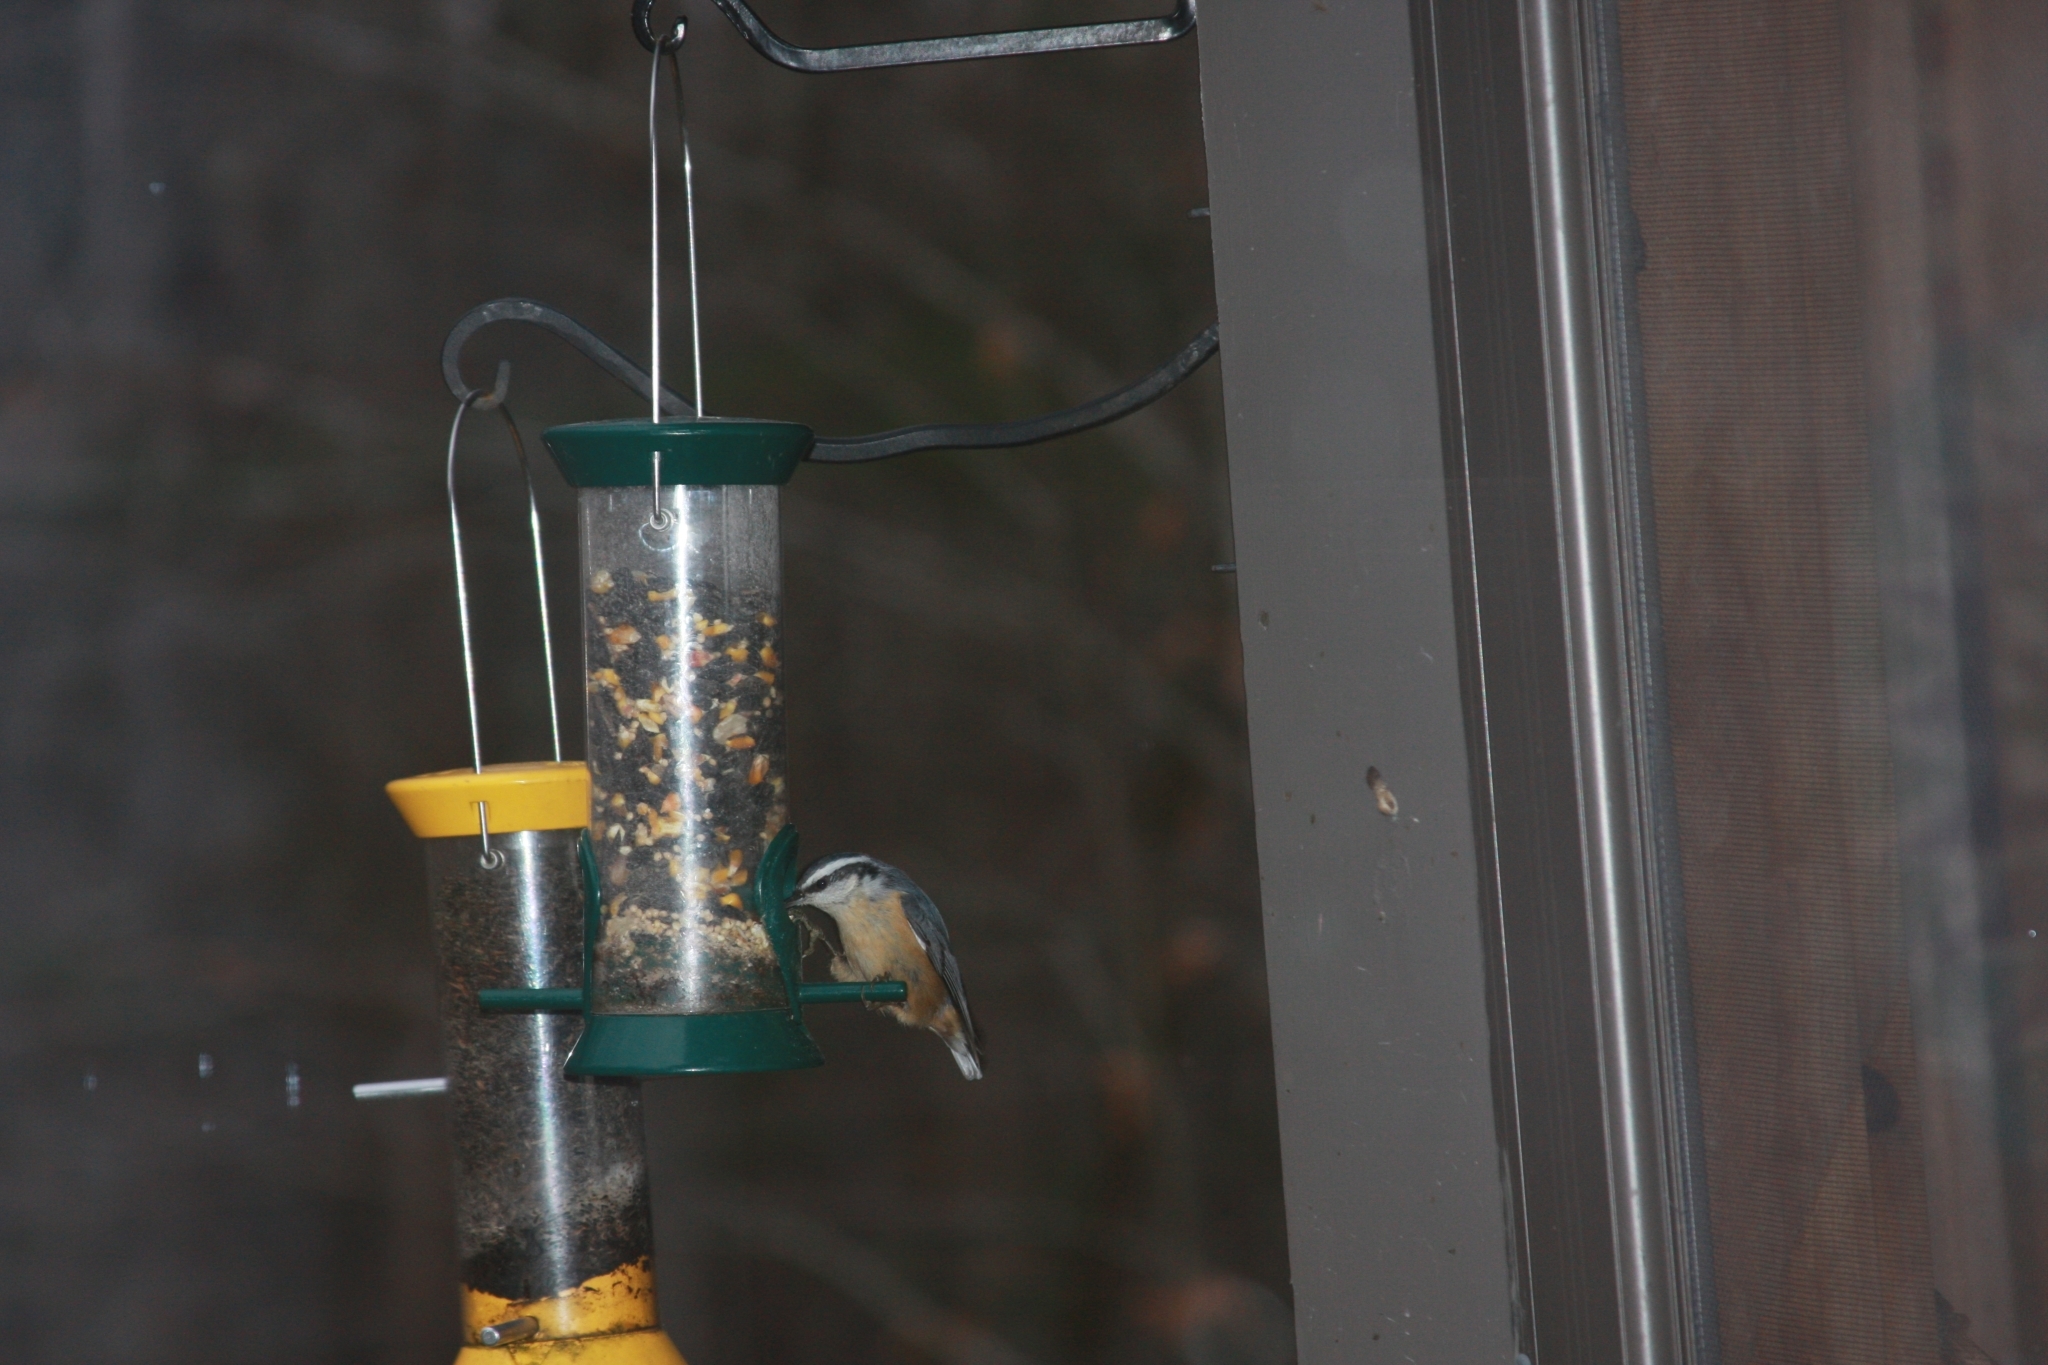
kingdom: Animalia
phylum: Chordata
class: Aves
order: Passeriformes
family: Sittidae
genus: Sitta
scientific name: Sitta canadensis
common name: Red-breasted nuthatch
